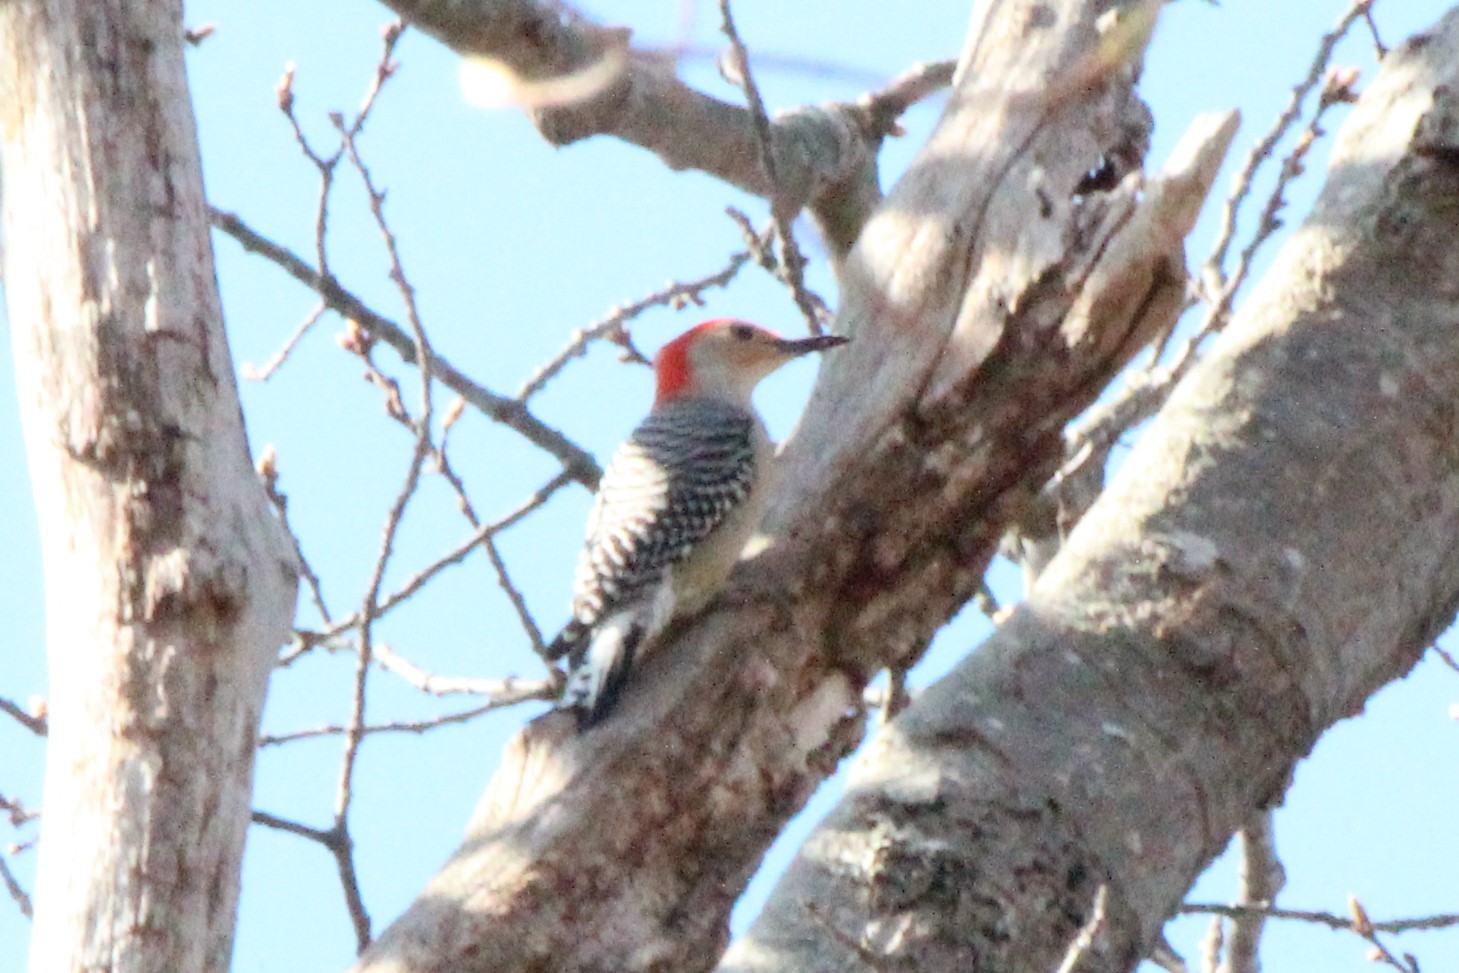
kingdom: Animalia
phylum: Chordata
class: Aves
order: Piciformes
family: Picidae
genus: Melanerpes
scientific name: Melanerpes carolinus
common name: Red-bellied woodpecker
